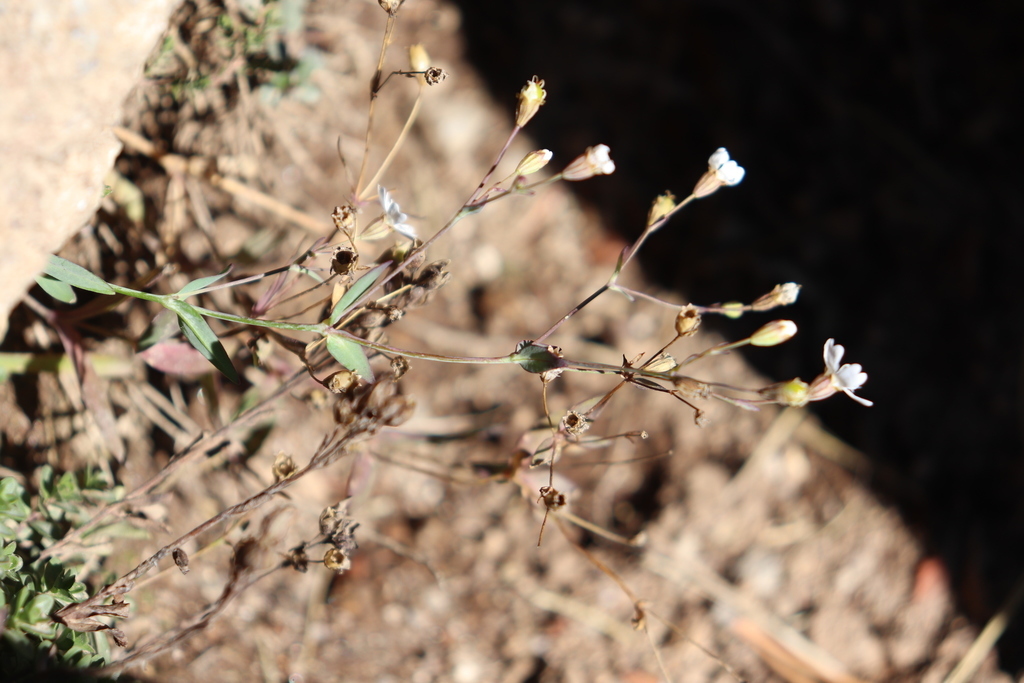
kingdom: Plantae
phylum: Tracheophyta
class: Magnoliopsida
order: Caryophyllales
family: Caryophyllaceae
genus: Atocion
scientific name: Atocion rupestre
